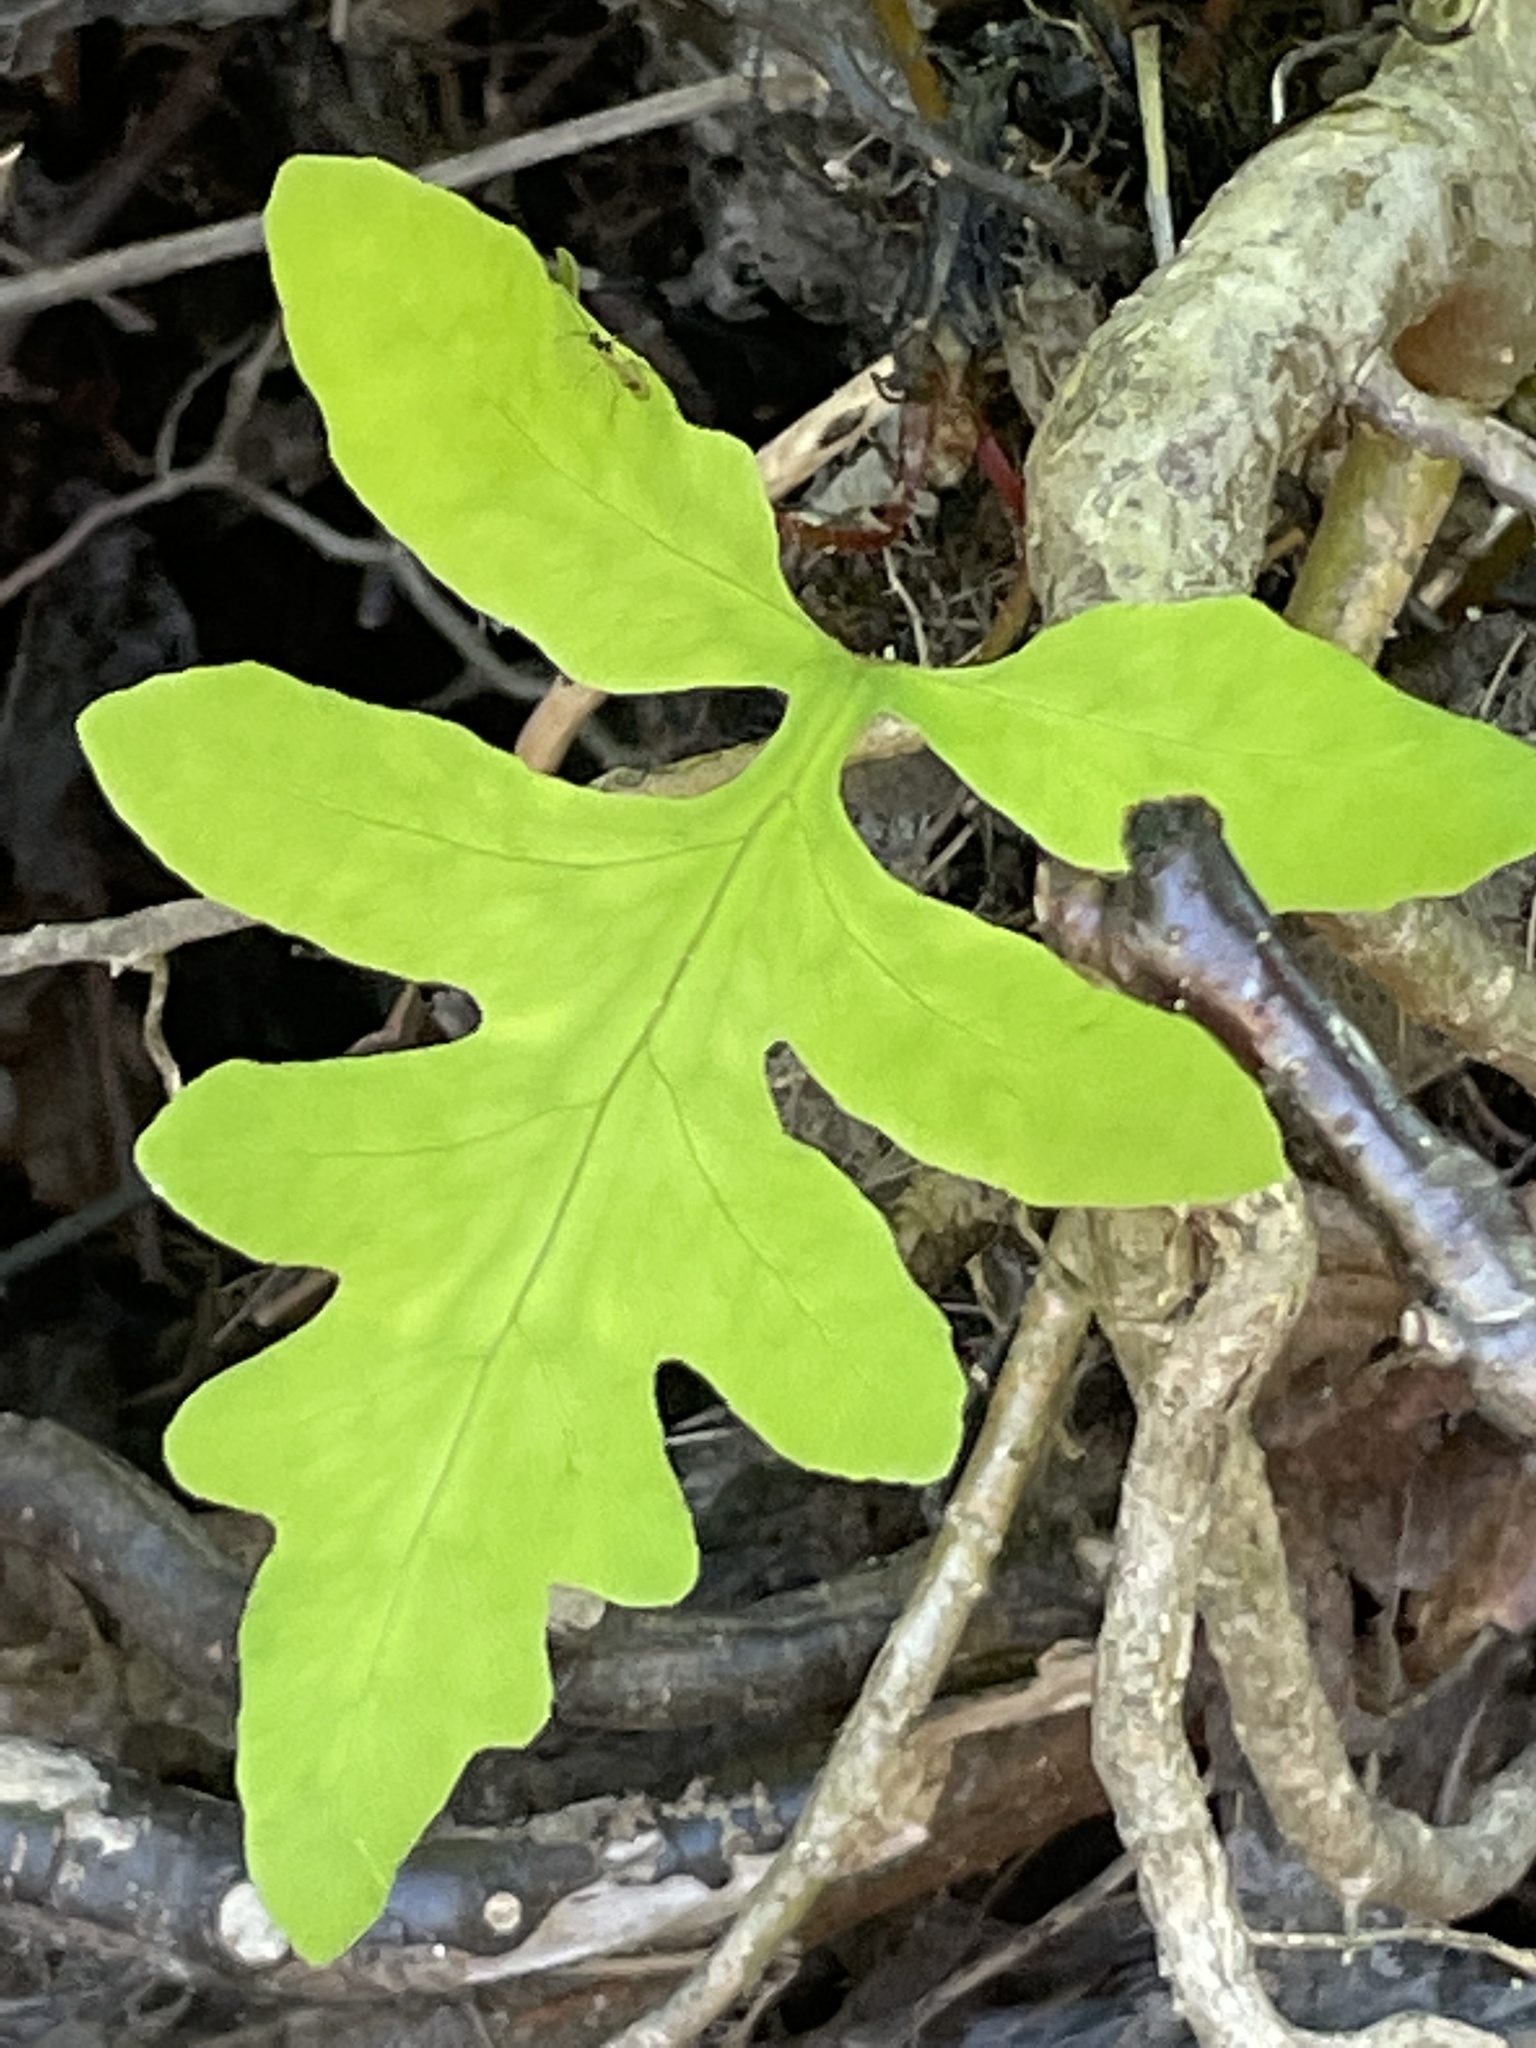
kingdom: Plantae
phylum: Tracheophyta
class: Polypodiopsida
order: Polypodiales
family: Onocleaceae
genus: Onoclea
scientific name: Onoclea sensibilis
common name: Sensitive fern
